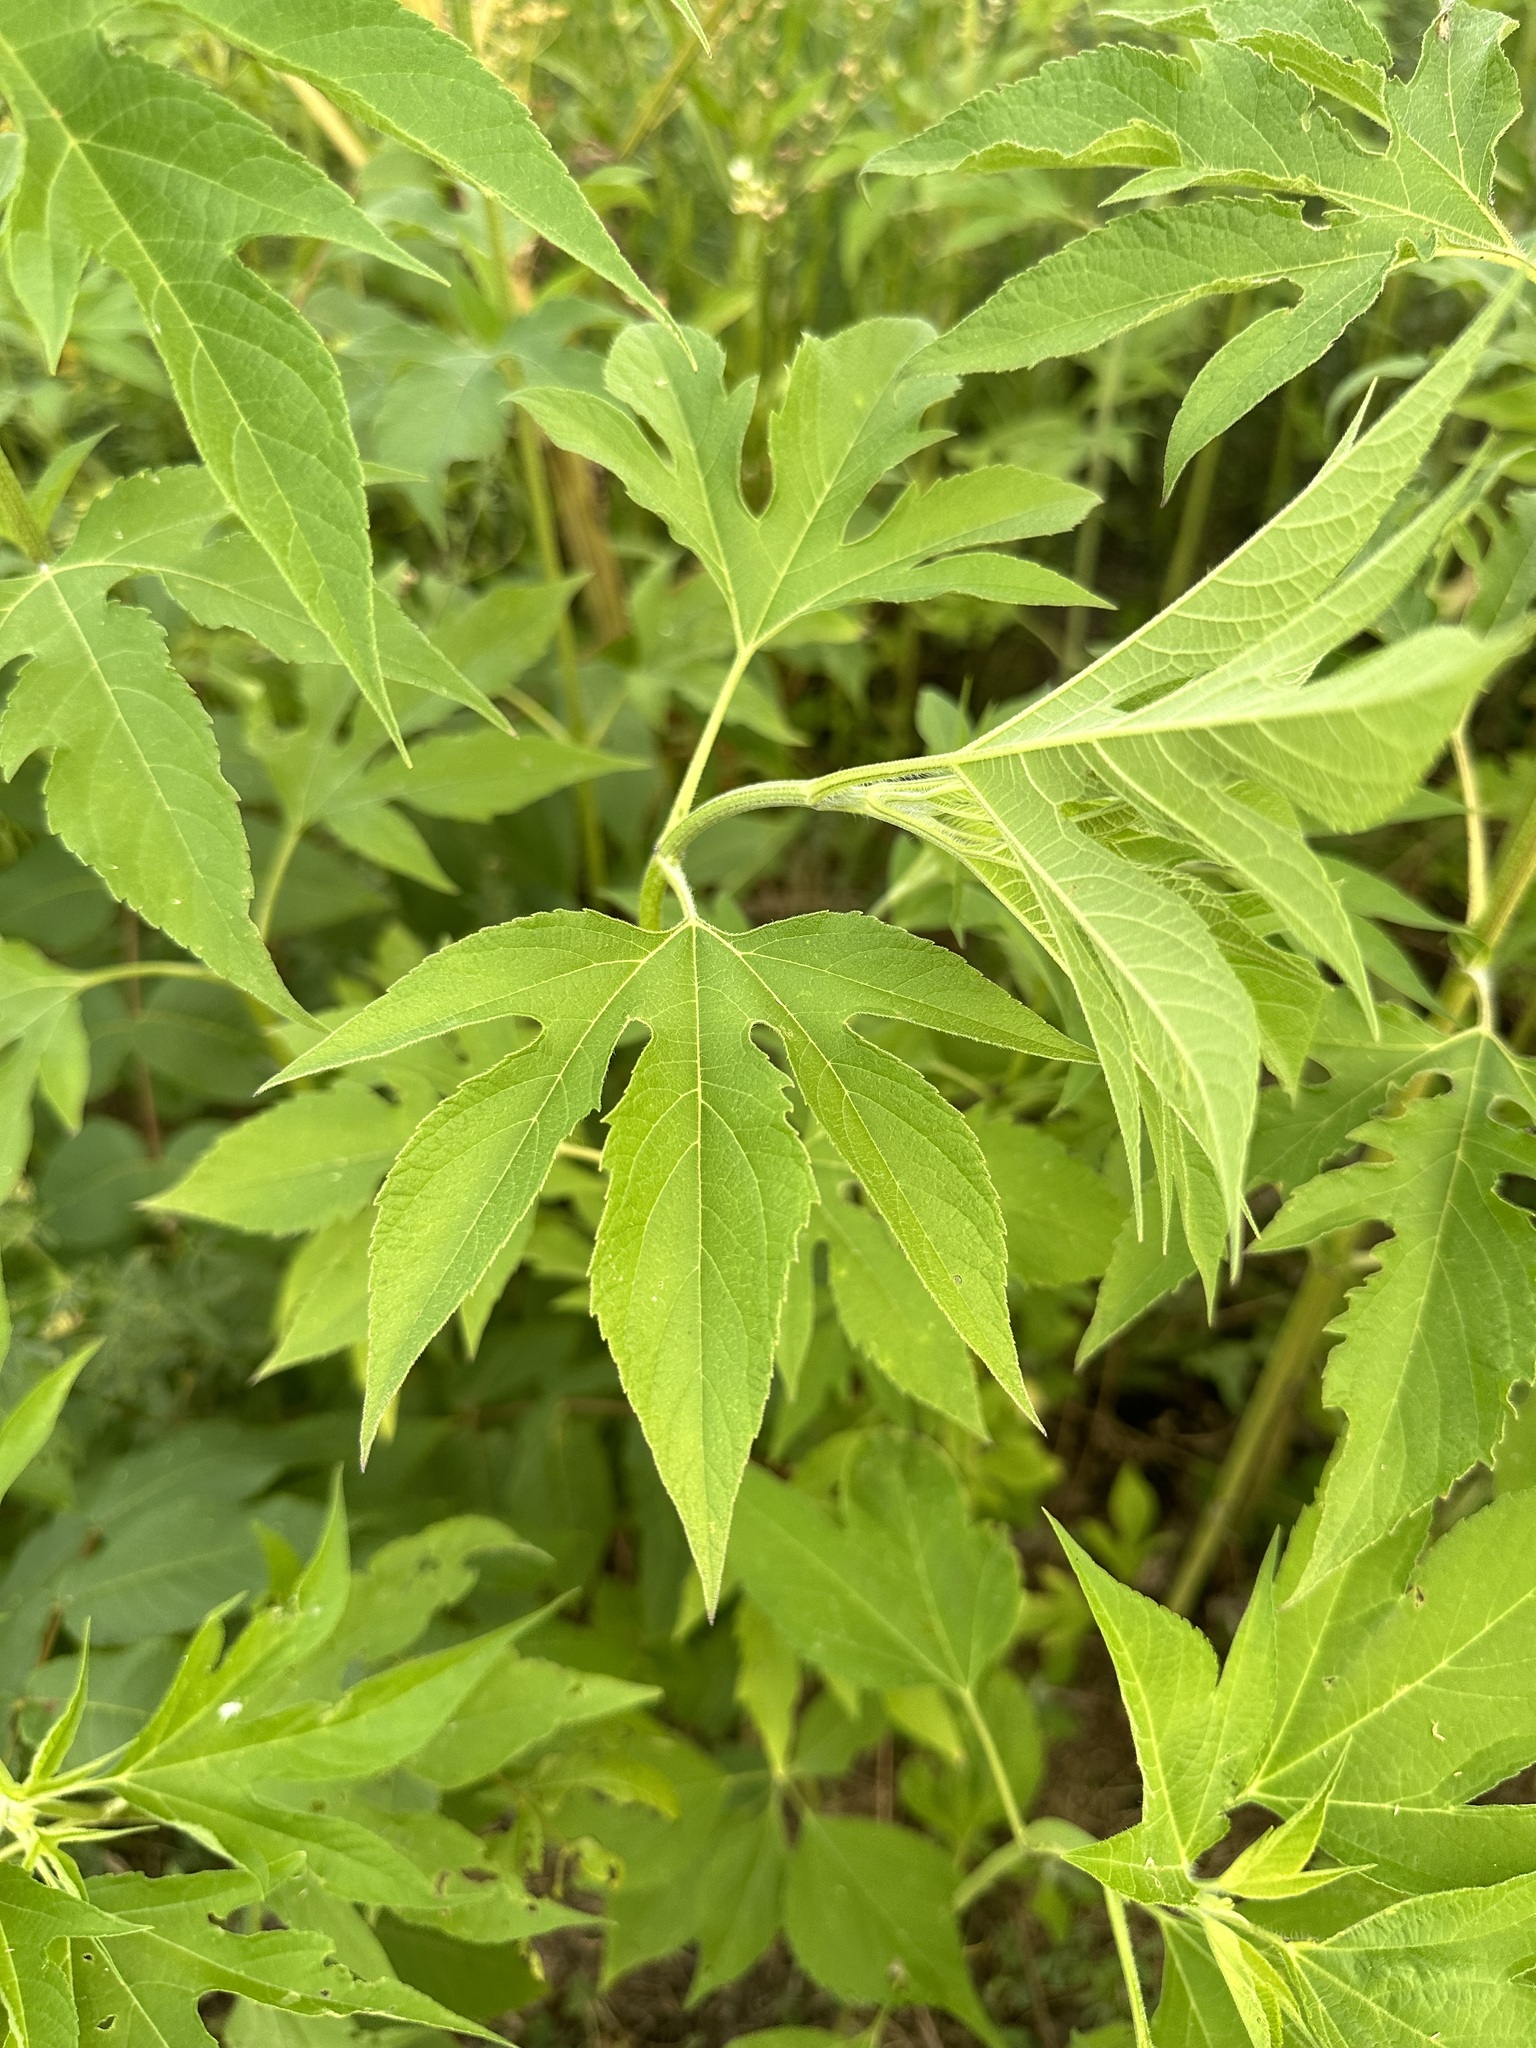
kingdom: Plantae
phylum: Tracheophyta
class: Magnoliopsida
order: Asterales
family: Asteraceae
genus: Ambrosia
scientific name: Ambrosia trifida
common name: Giant ragweed
